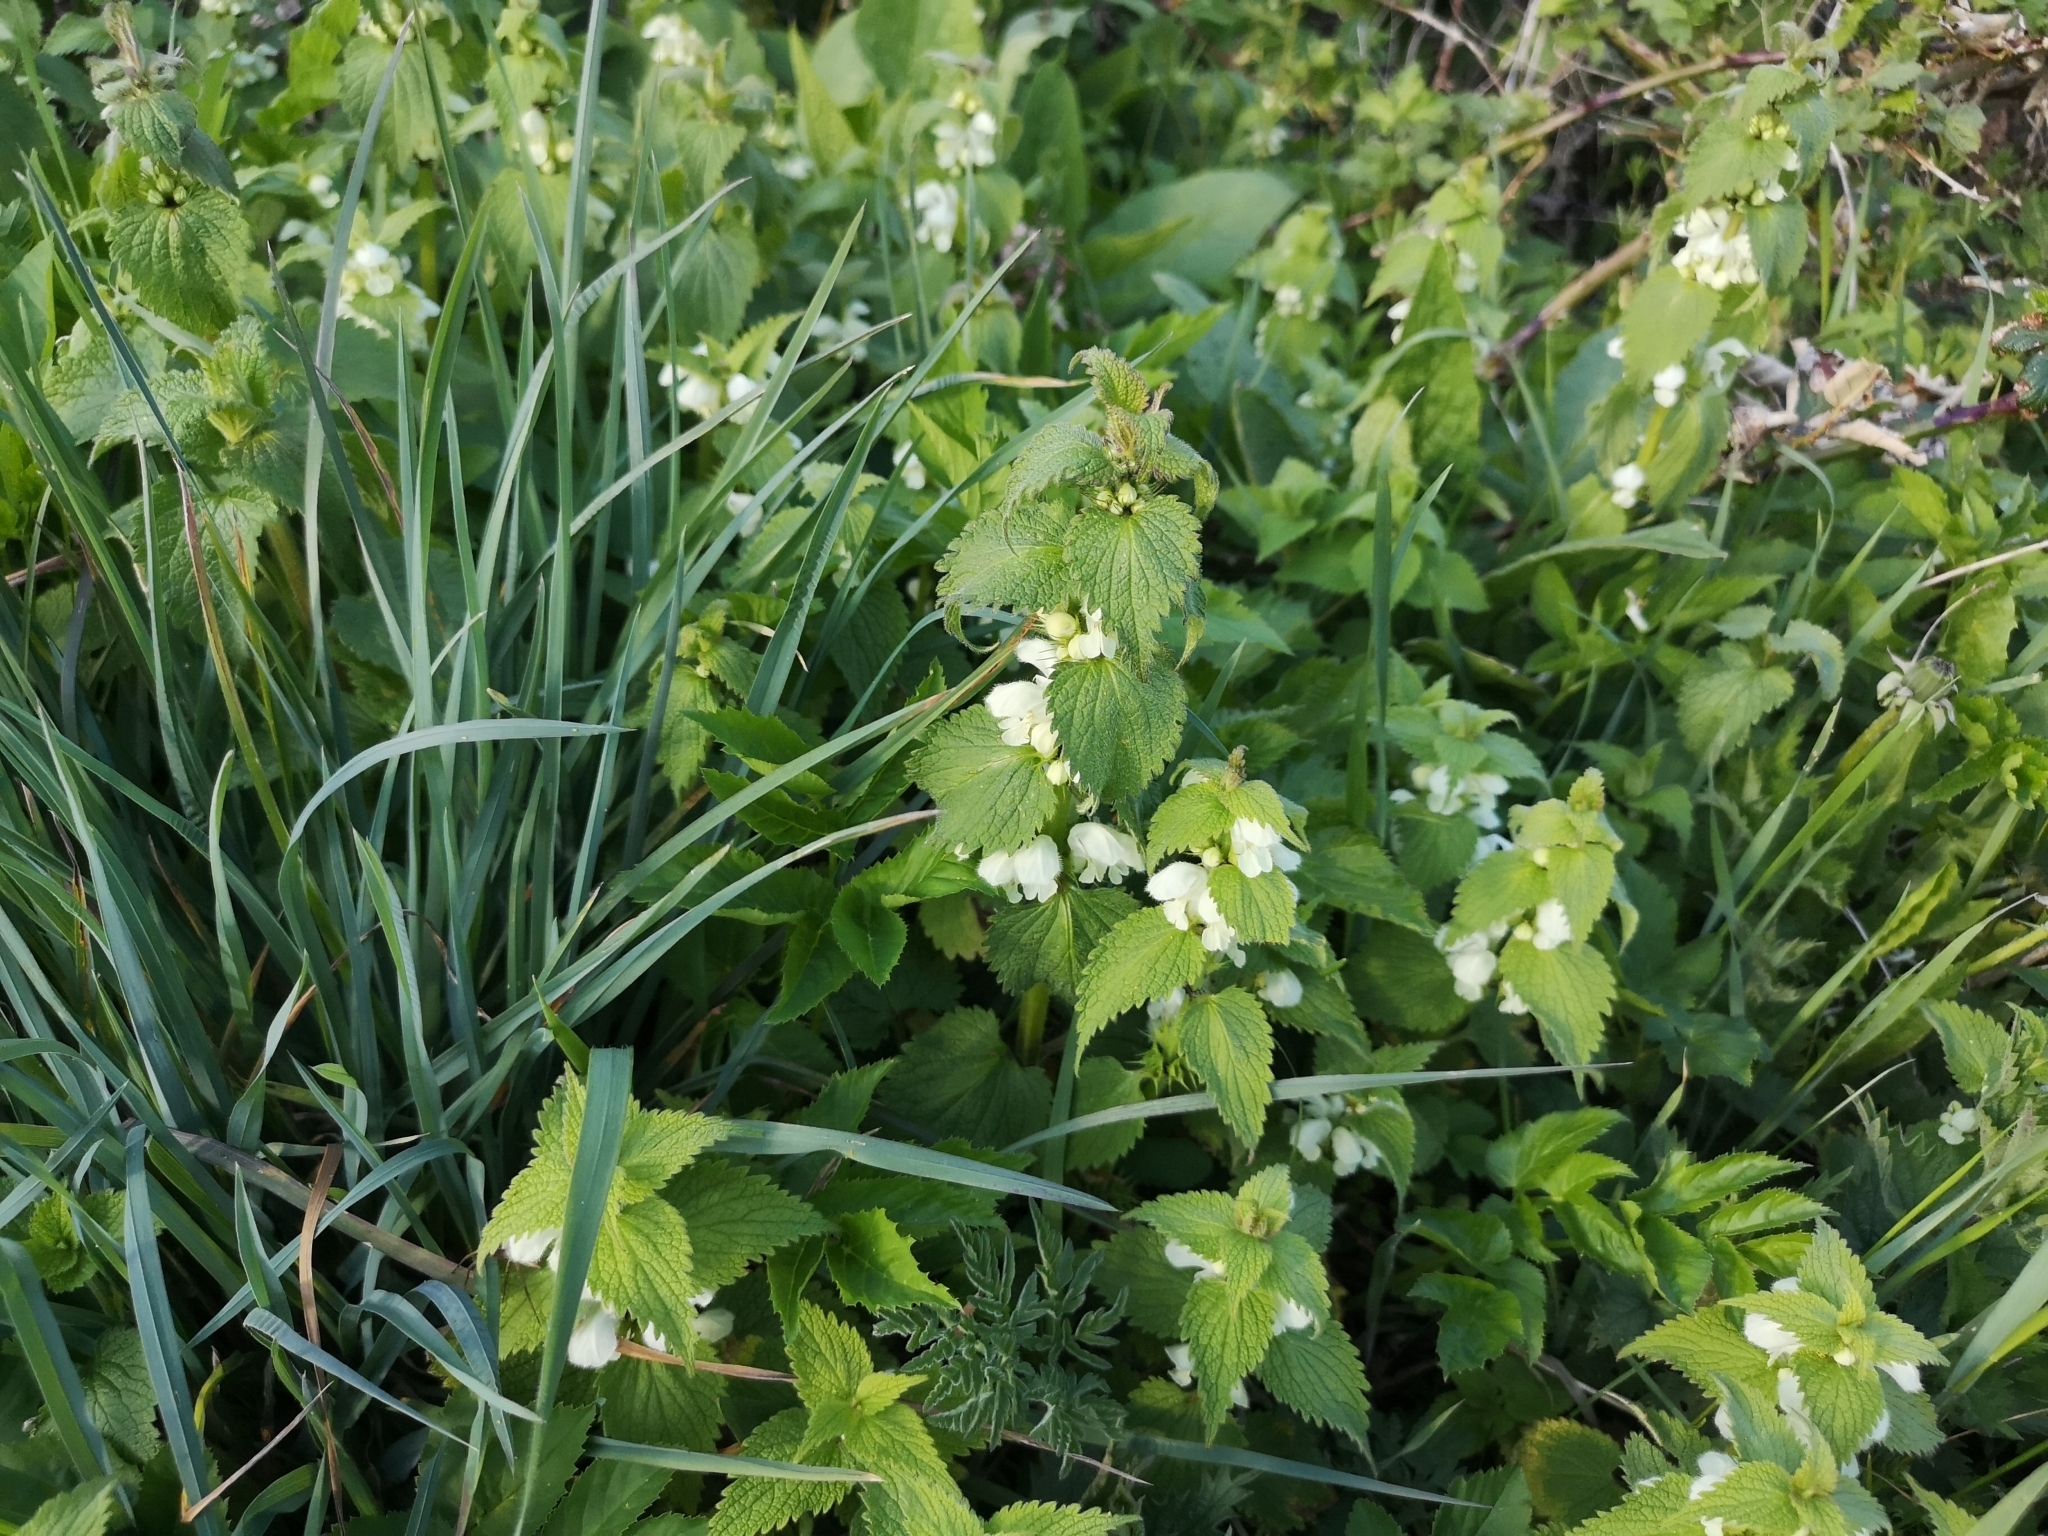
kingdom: Plantae
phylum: Tracheophyta
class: Magnoliopsida
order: Lamiales
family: Lamiaceae
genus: Lamium
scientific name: Lamium album
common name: White dead-nettle
